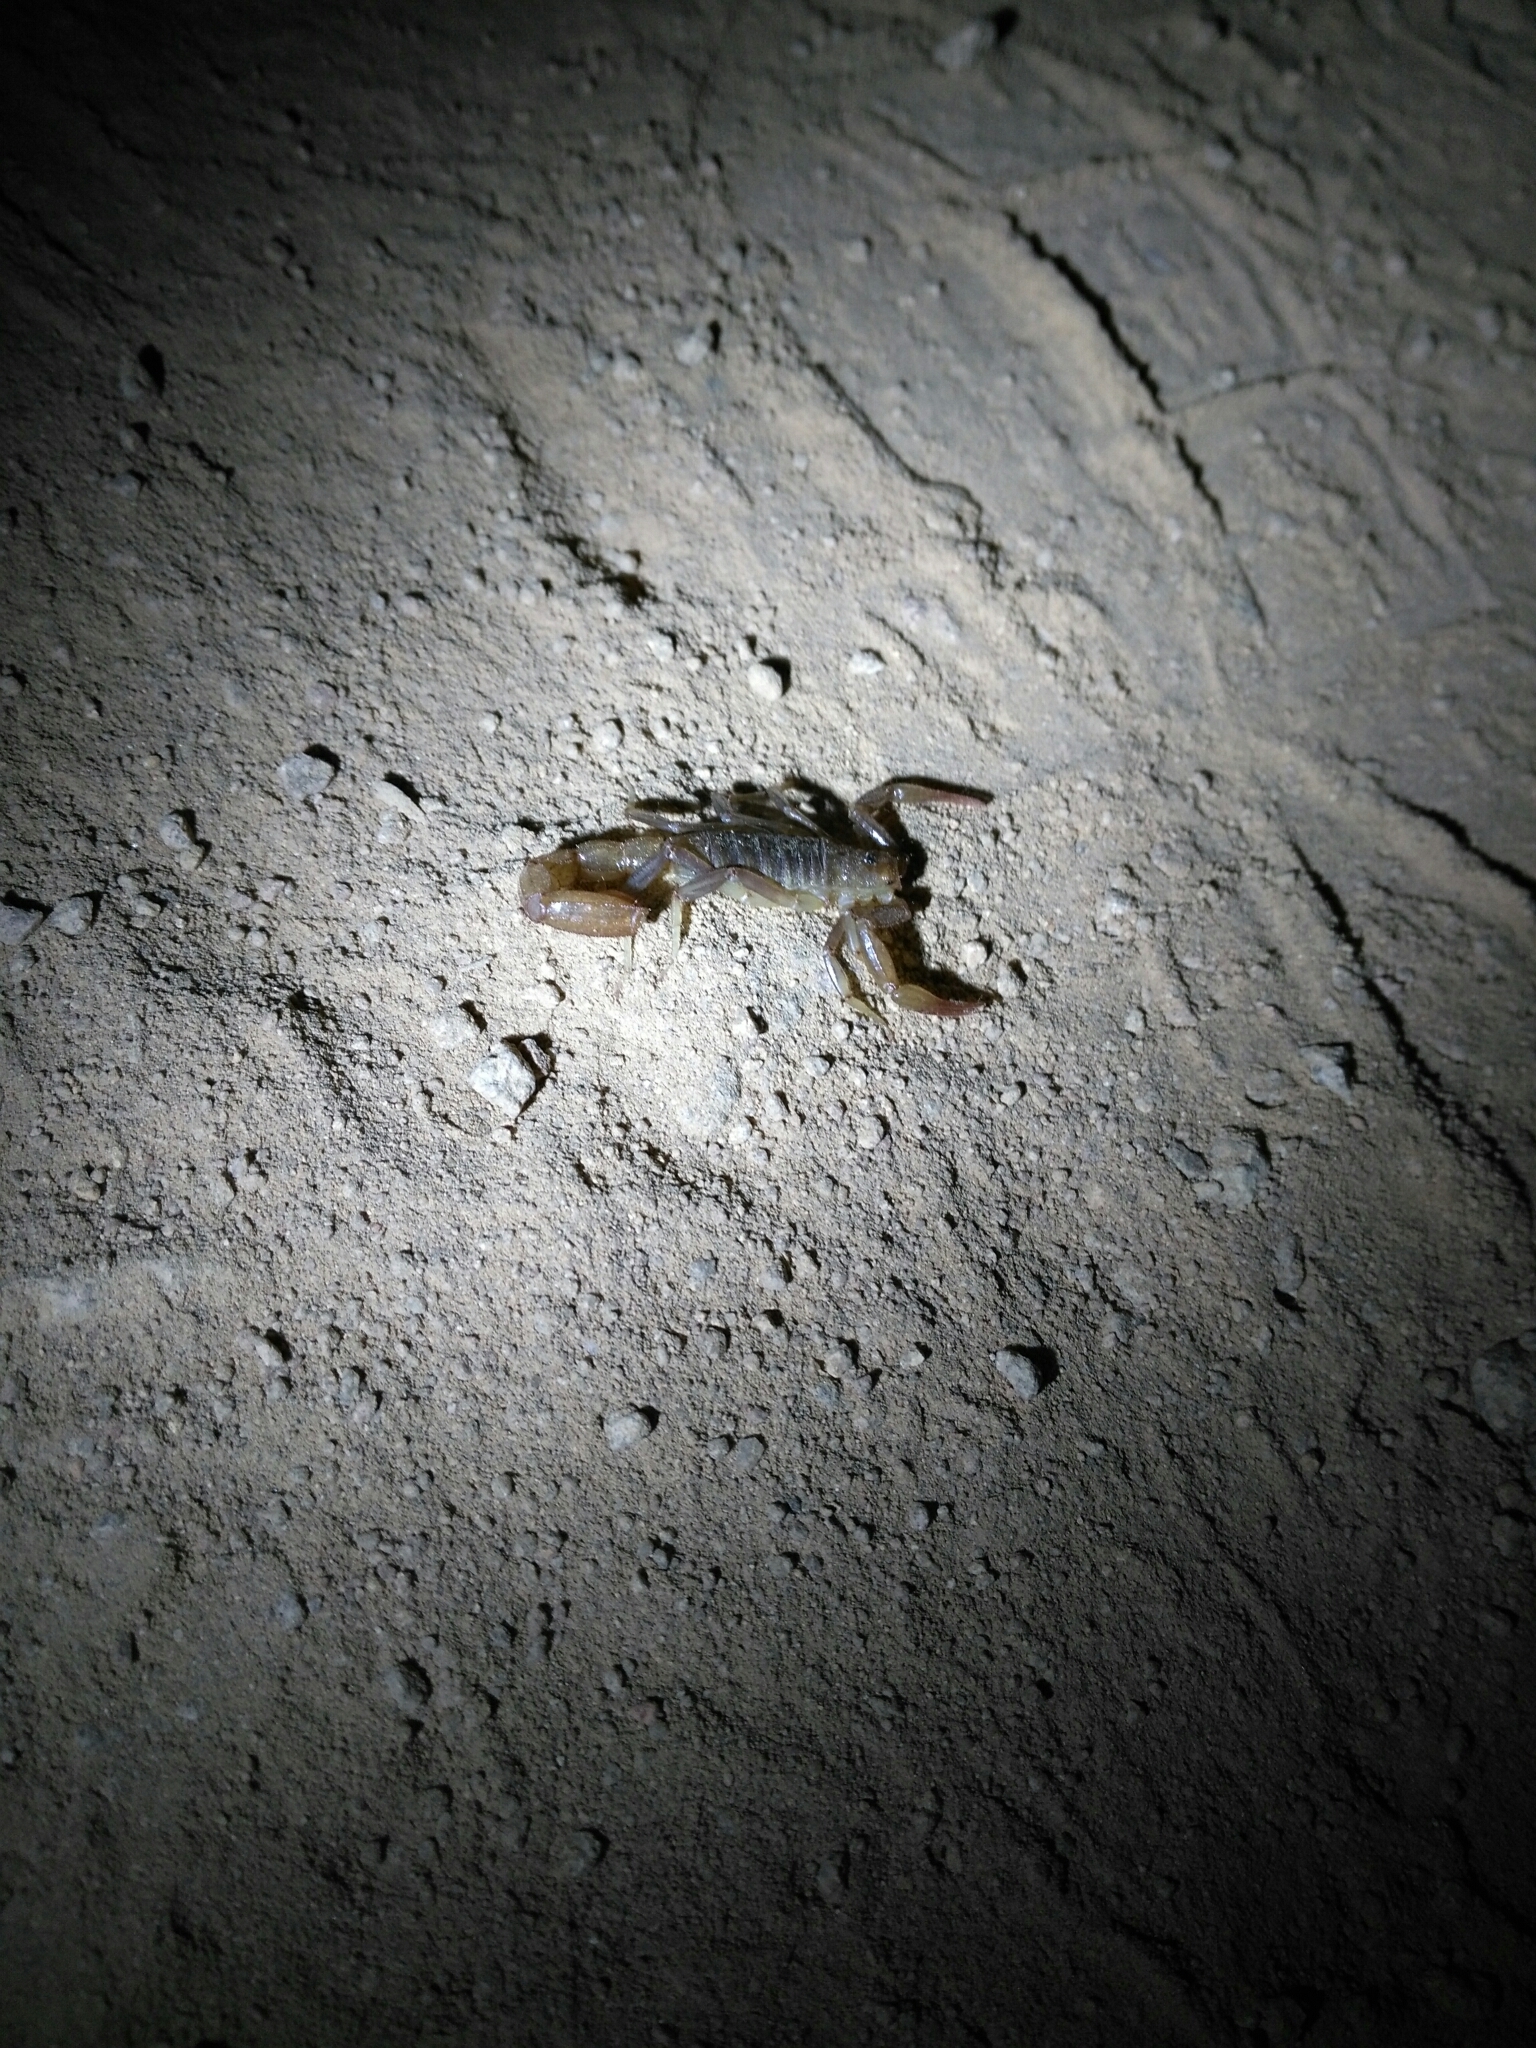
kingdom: Animalia
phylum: Arthropoda
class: Arachnida
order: Scorpiones
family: Vaejovidae
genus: Paravaejovis
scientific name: Paravaejovis puritanus
